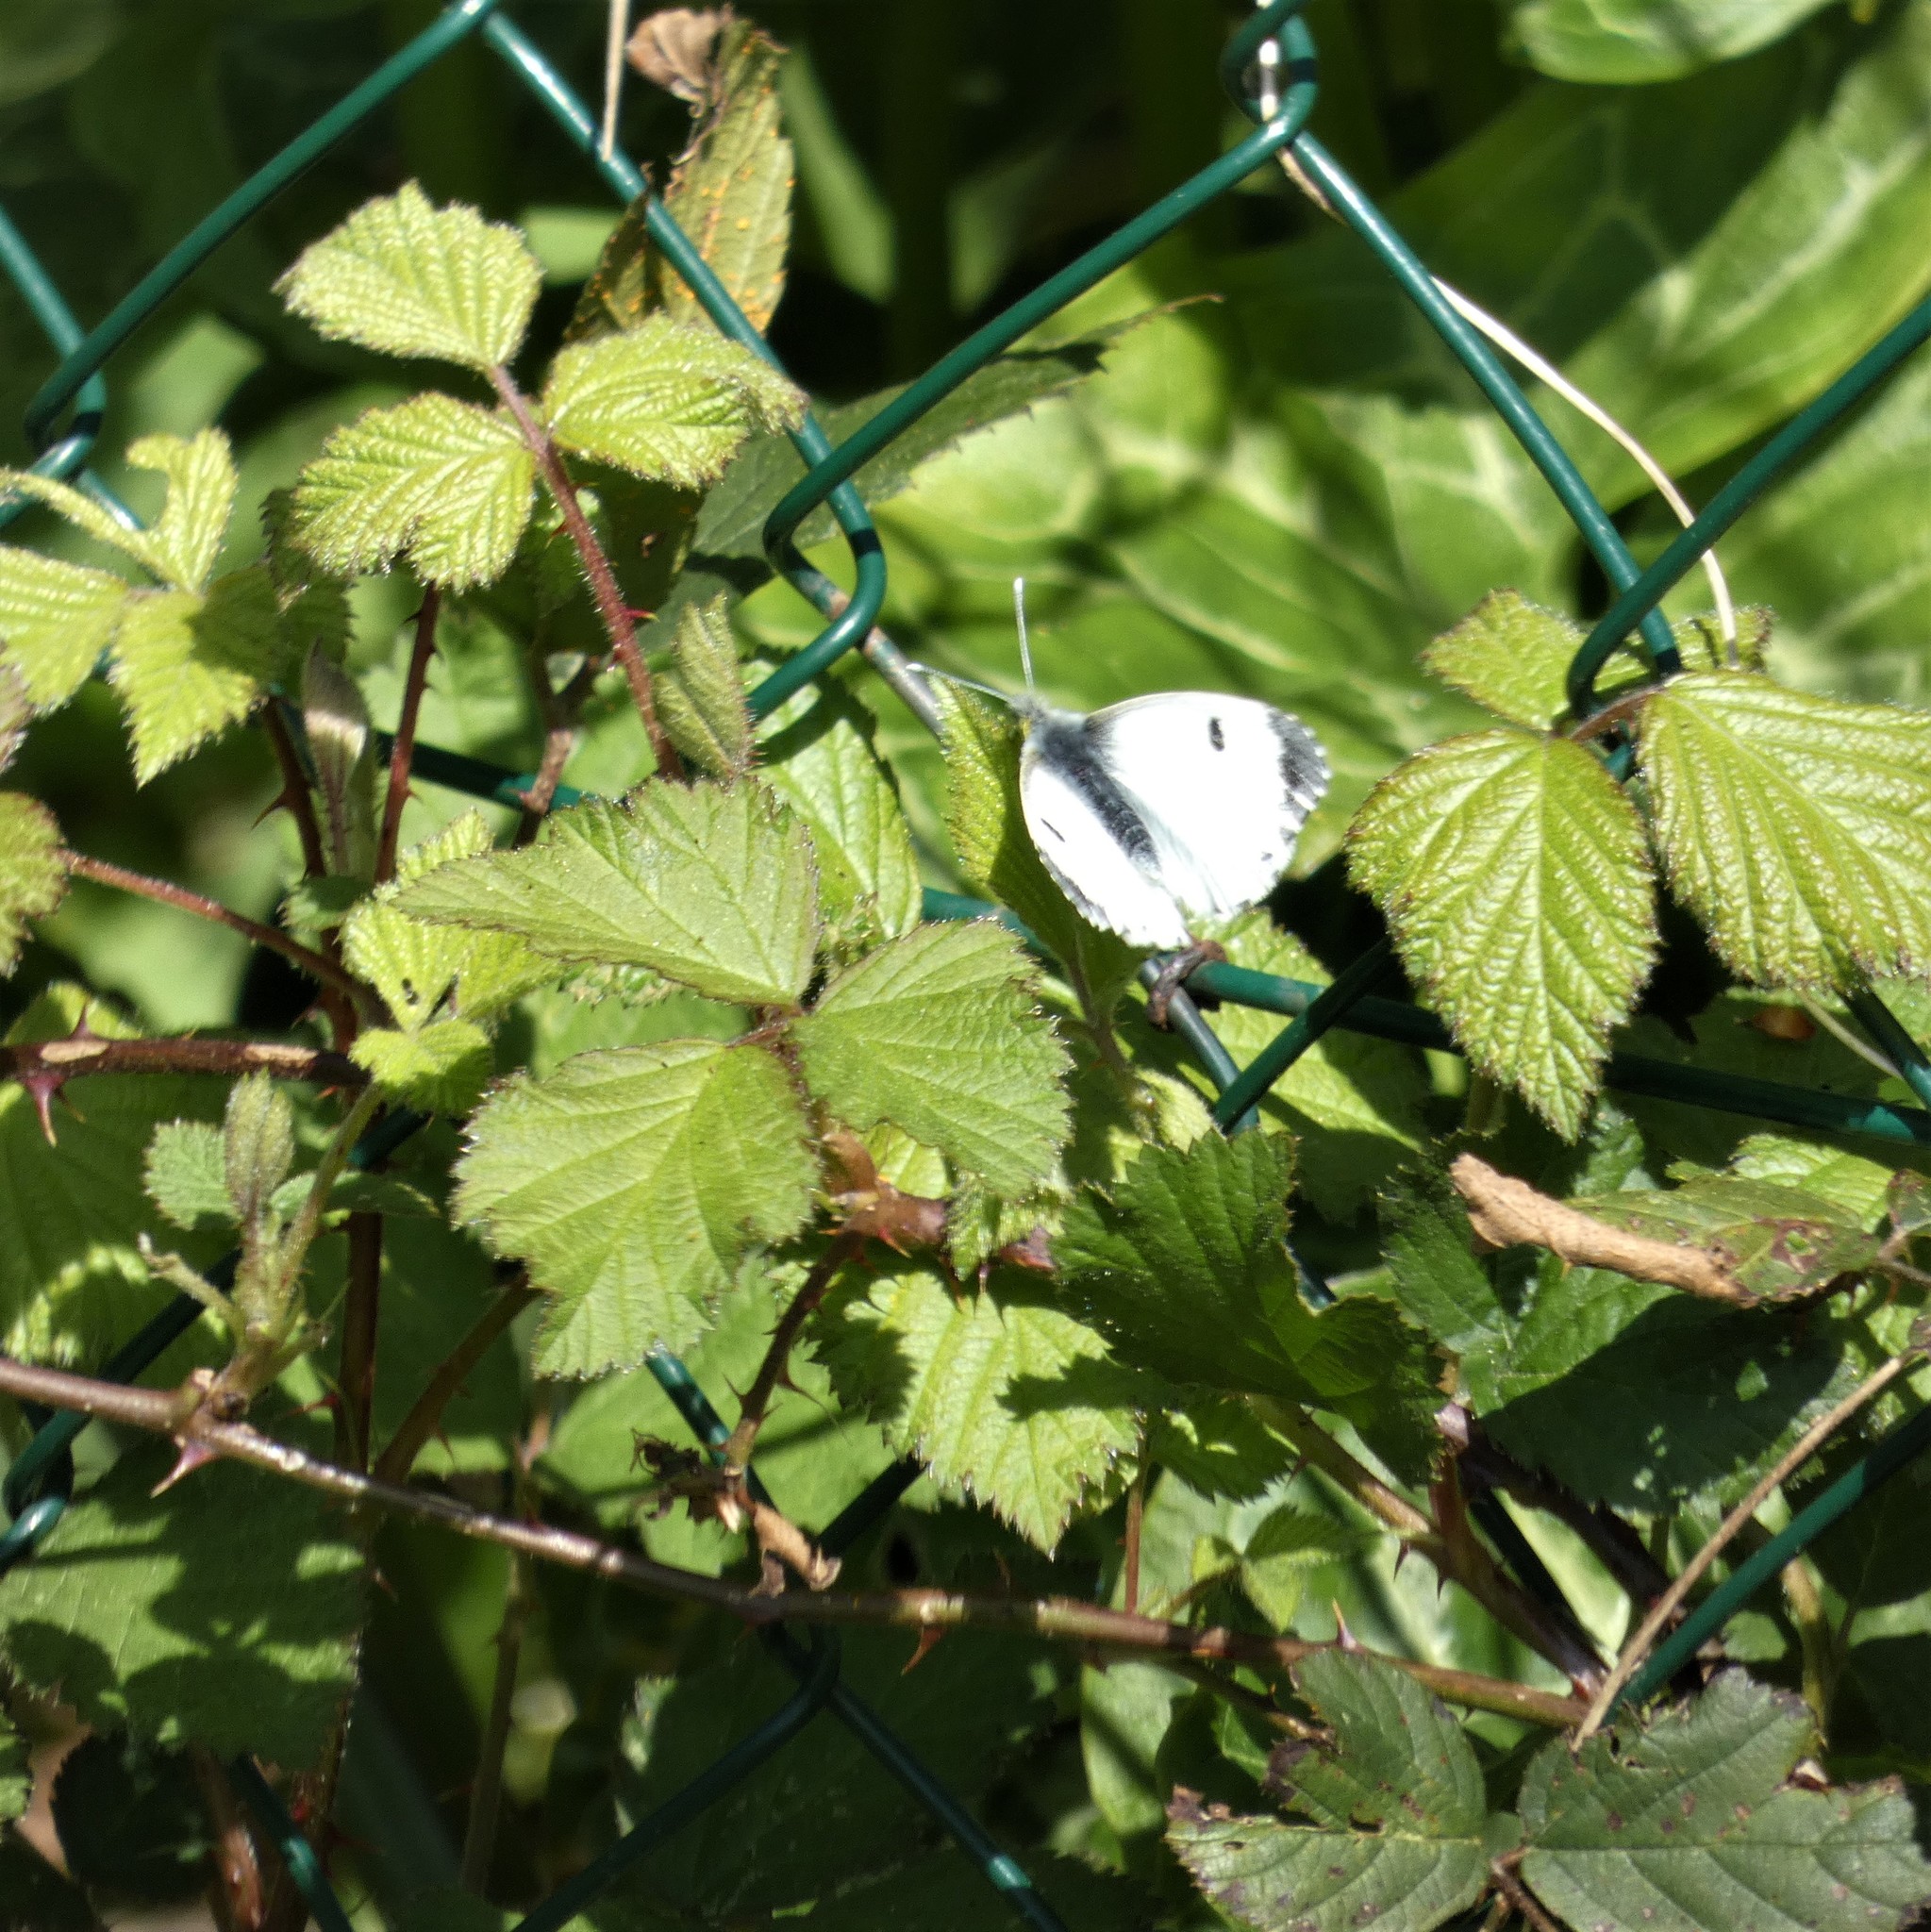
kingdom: Animalia
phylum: Arthropoda
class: Insecta
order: Lepidoptera
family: Pieridae
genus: Anthocharis
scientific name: Anthocharis cardamines
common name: Orange-tip
